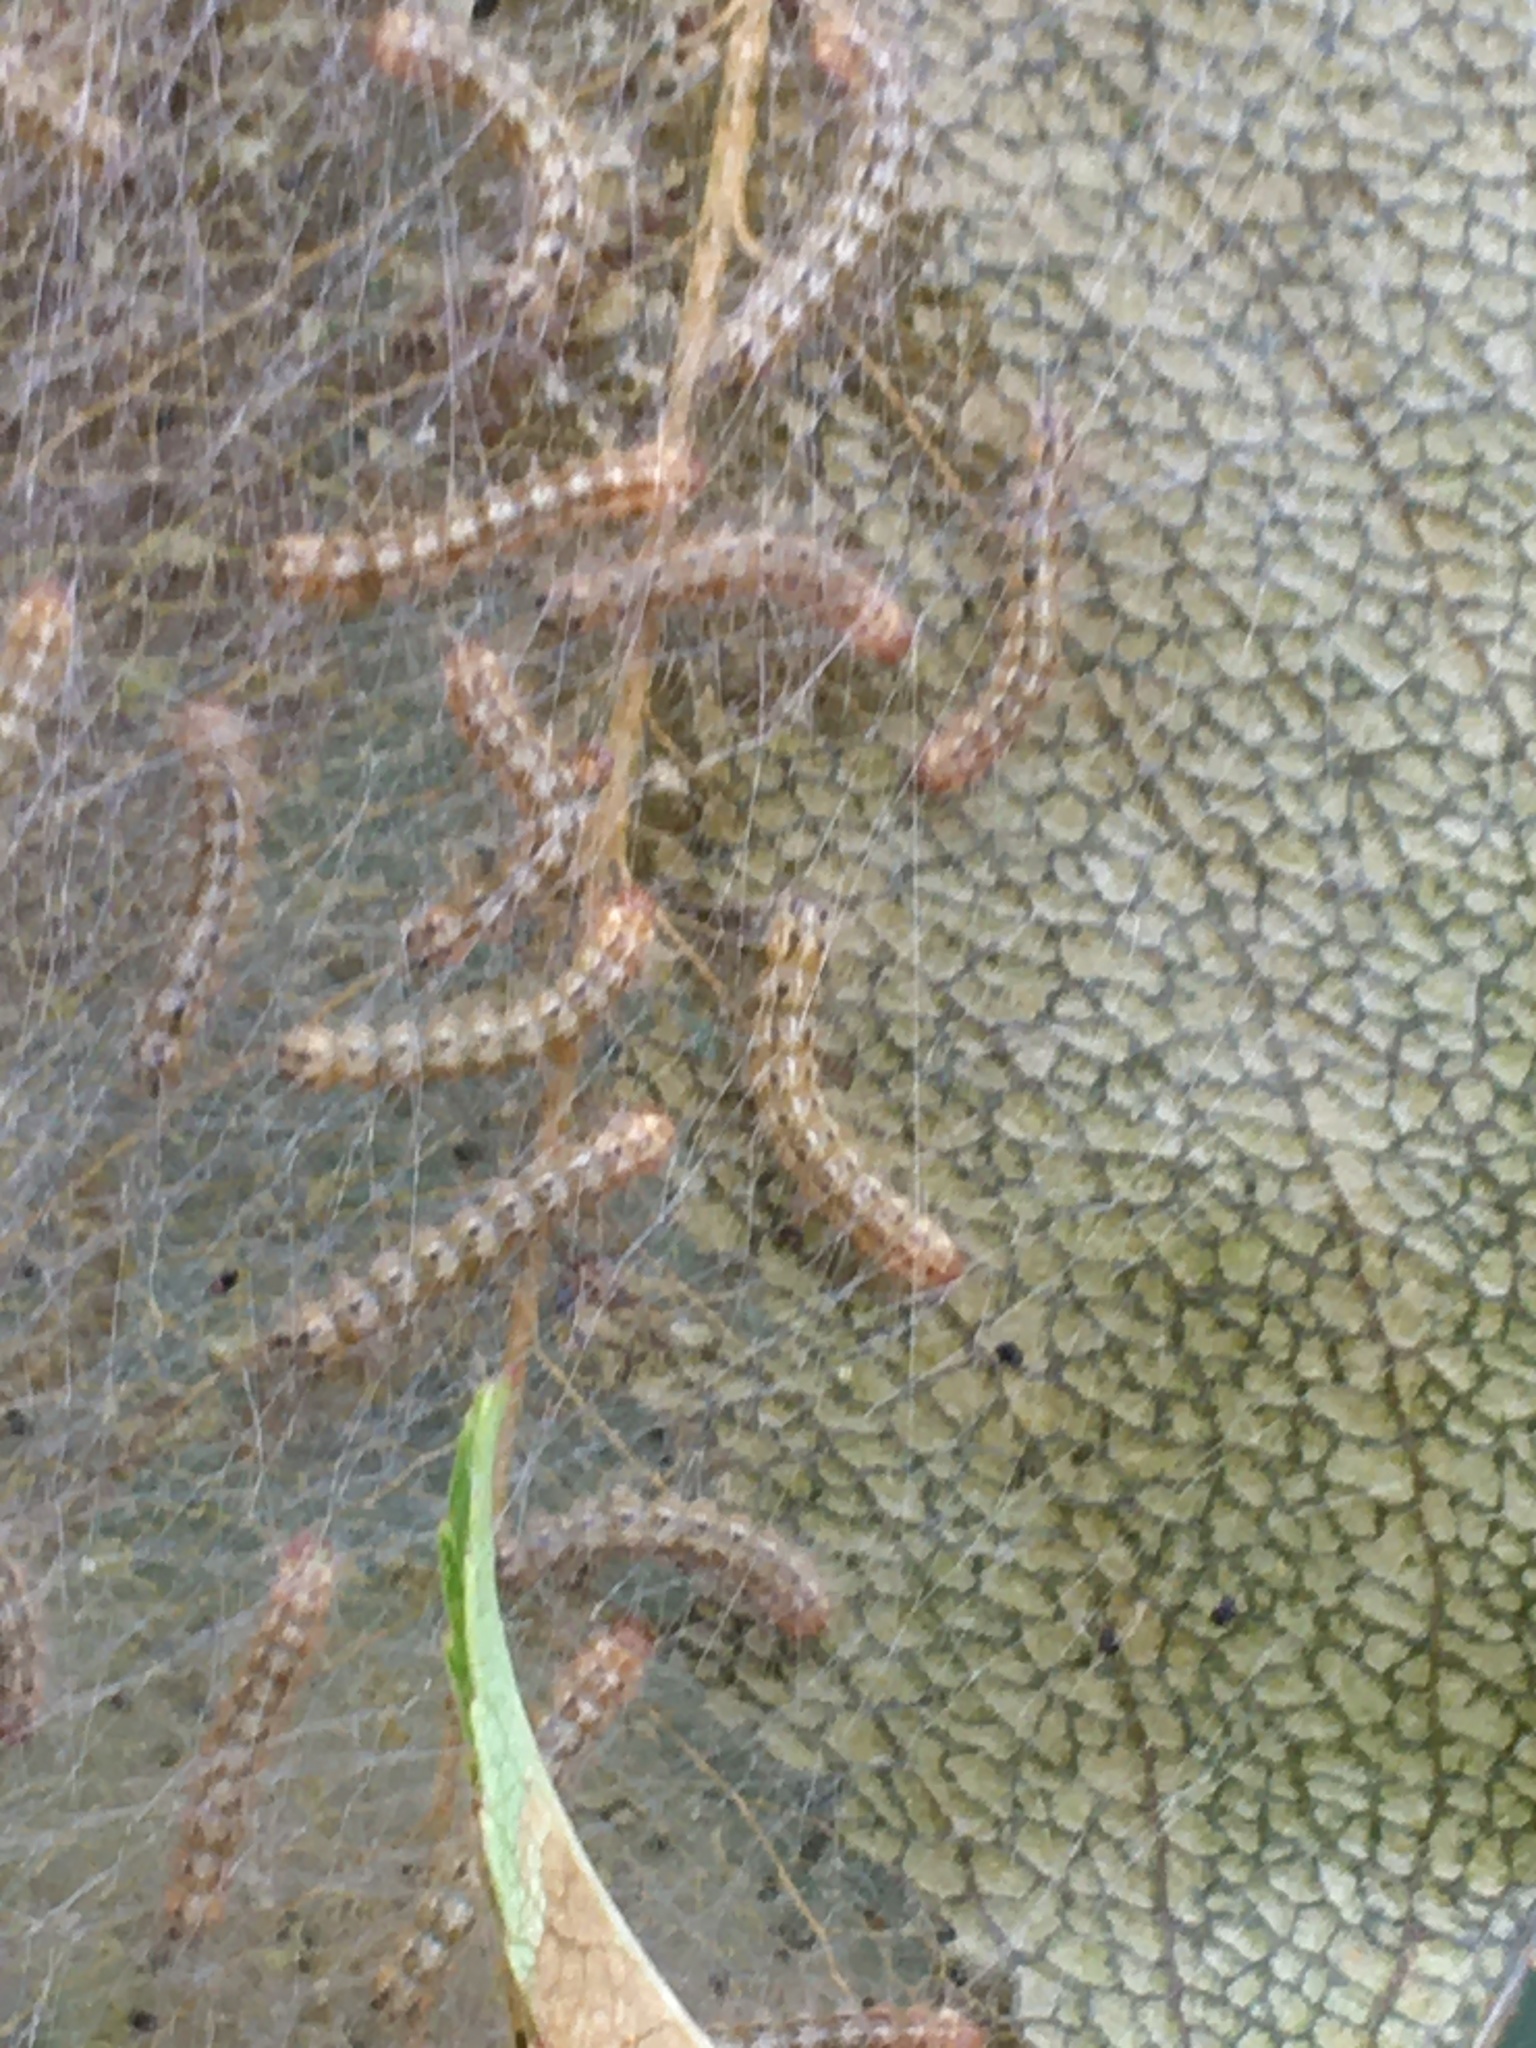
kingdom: Animalia
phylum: Arthropoda
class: Insecta
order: Lepidoptera
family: Erebidae
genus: Hyphantria
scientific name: Hyphantria cunea
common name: American white moth
